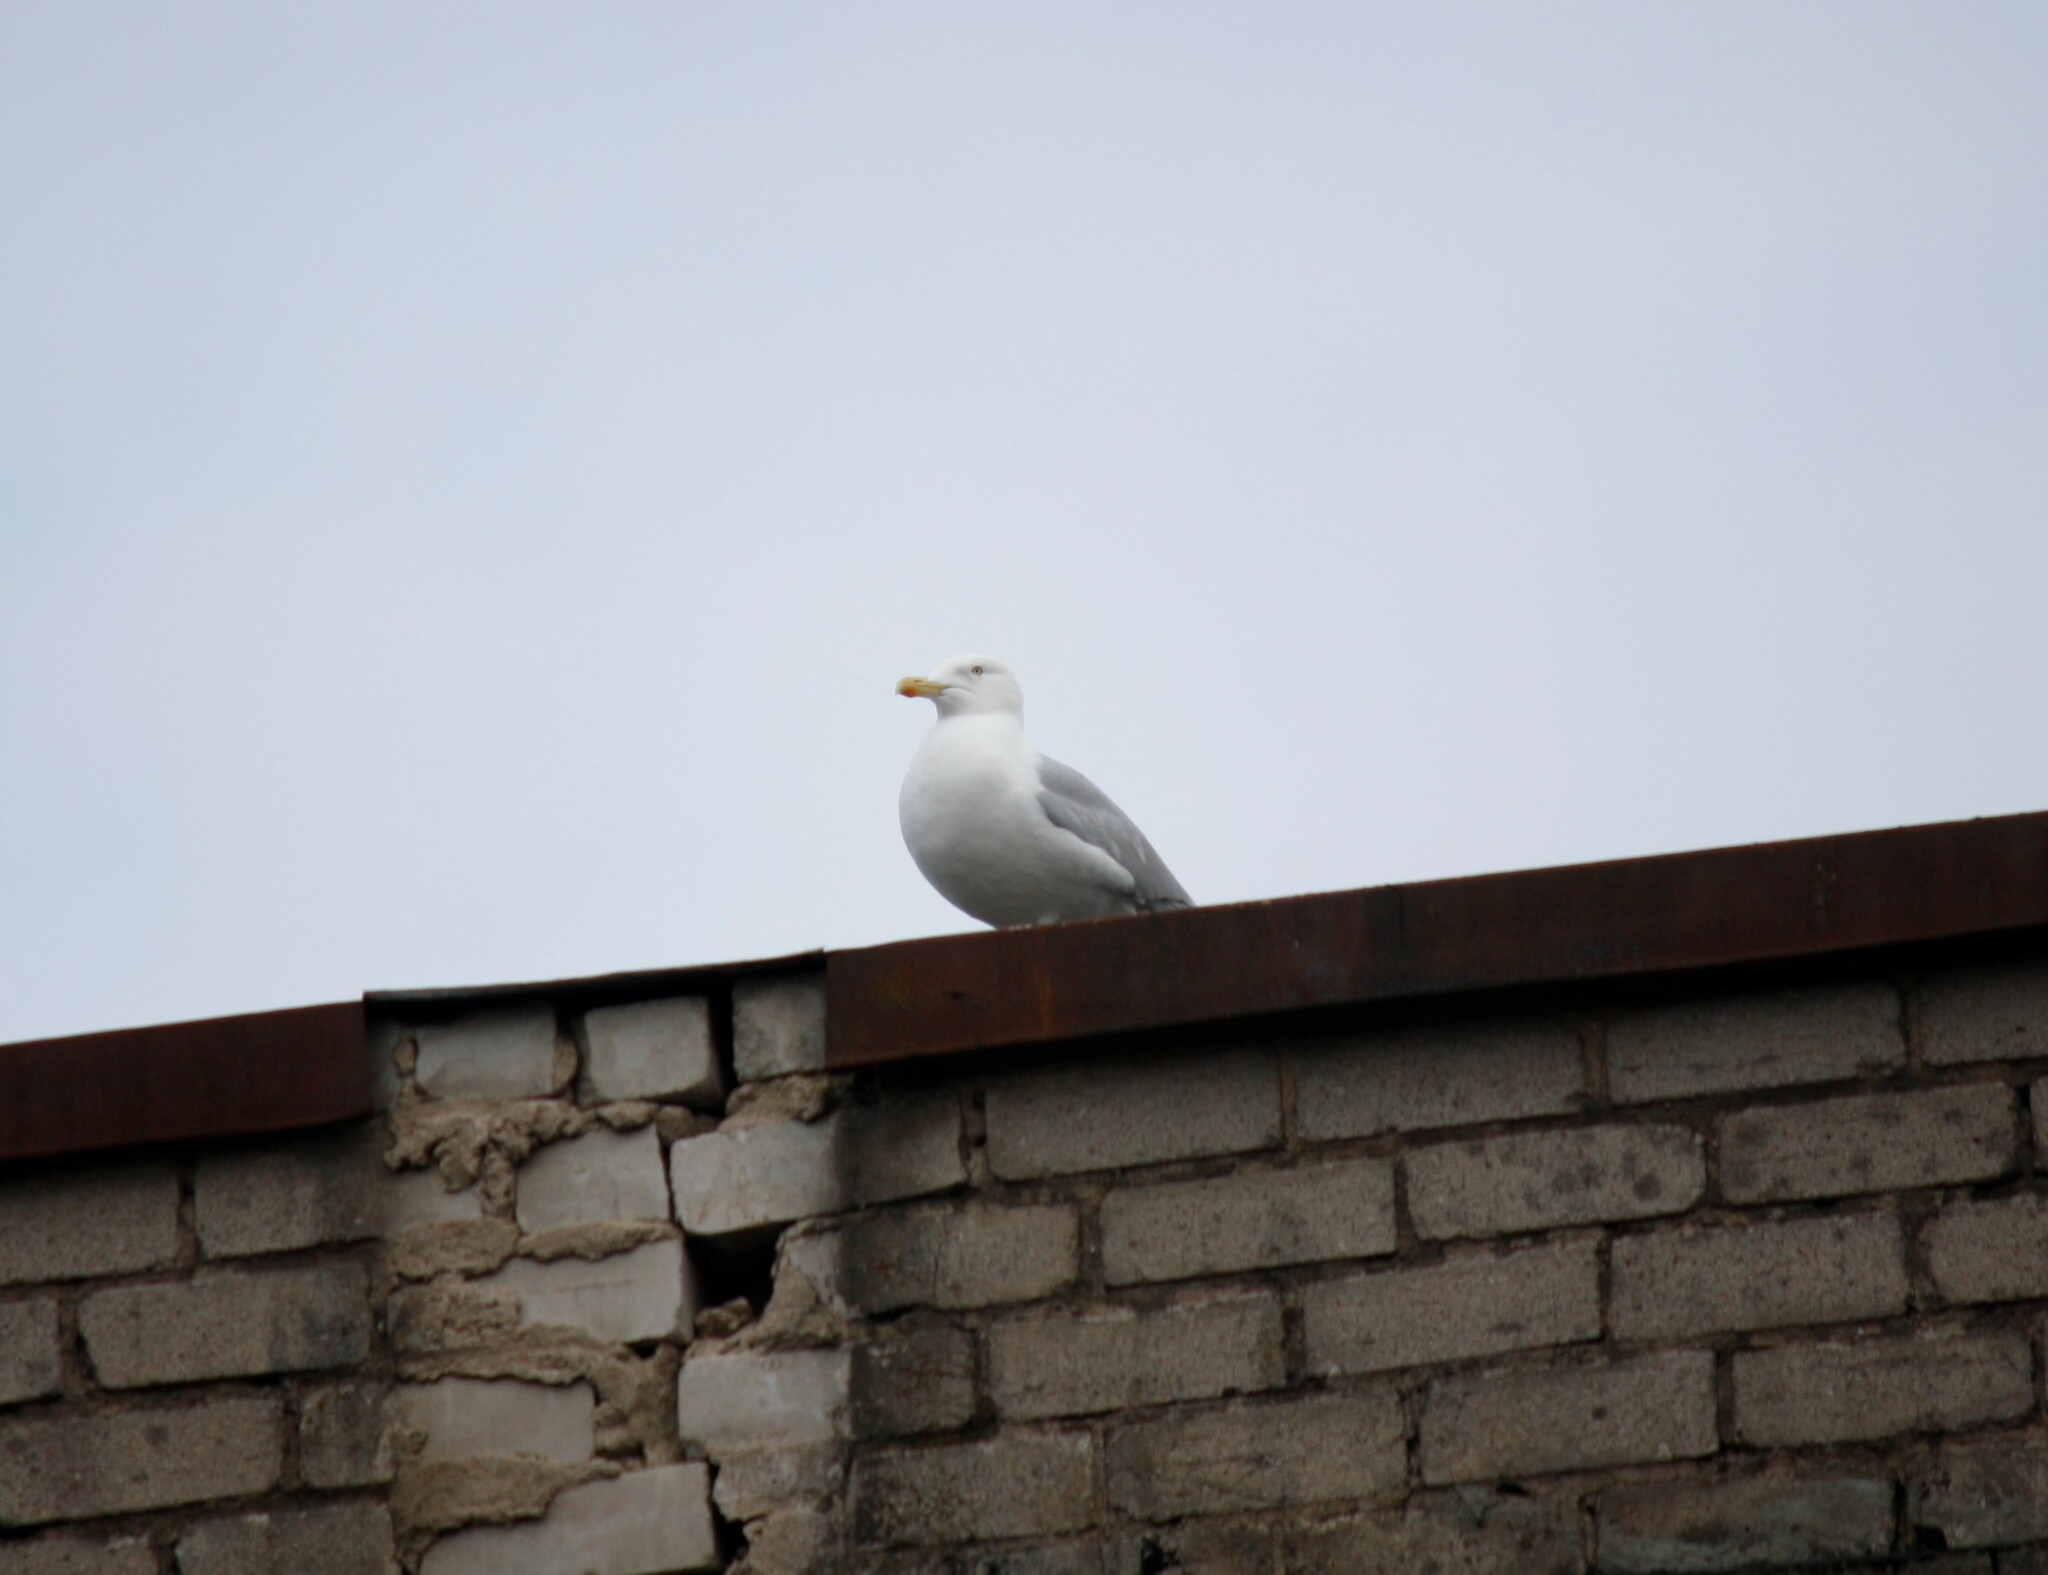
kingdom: Animalia
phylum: Chordata
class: Aves
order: Charadriiformes
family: Laridae
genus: Larus
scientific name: Larus argentatus
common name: Herring gull
